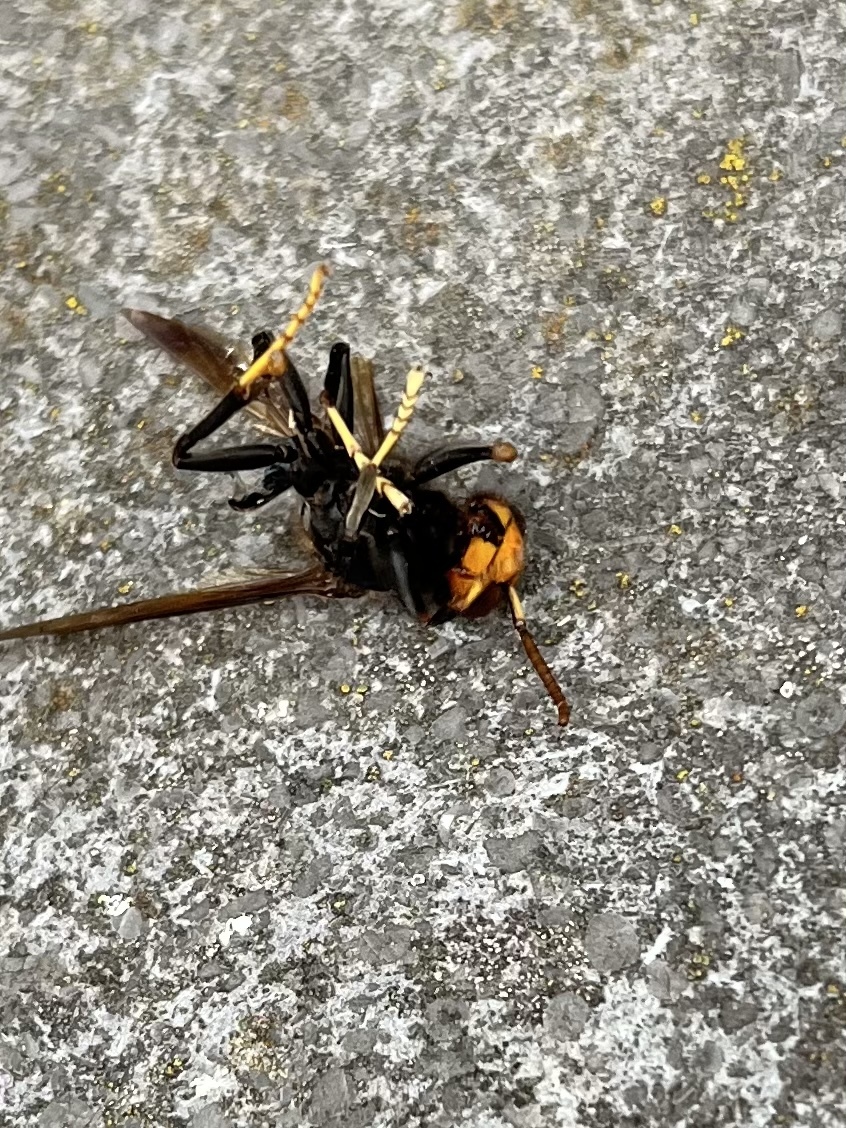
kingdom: Animalia
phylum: Arthropoda
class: Insecta
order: Hymenoptera
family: Vespidae
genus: Vespa
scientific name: Vespa velutina
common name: Asian hornet
